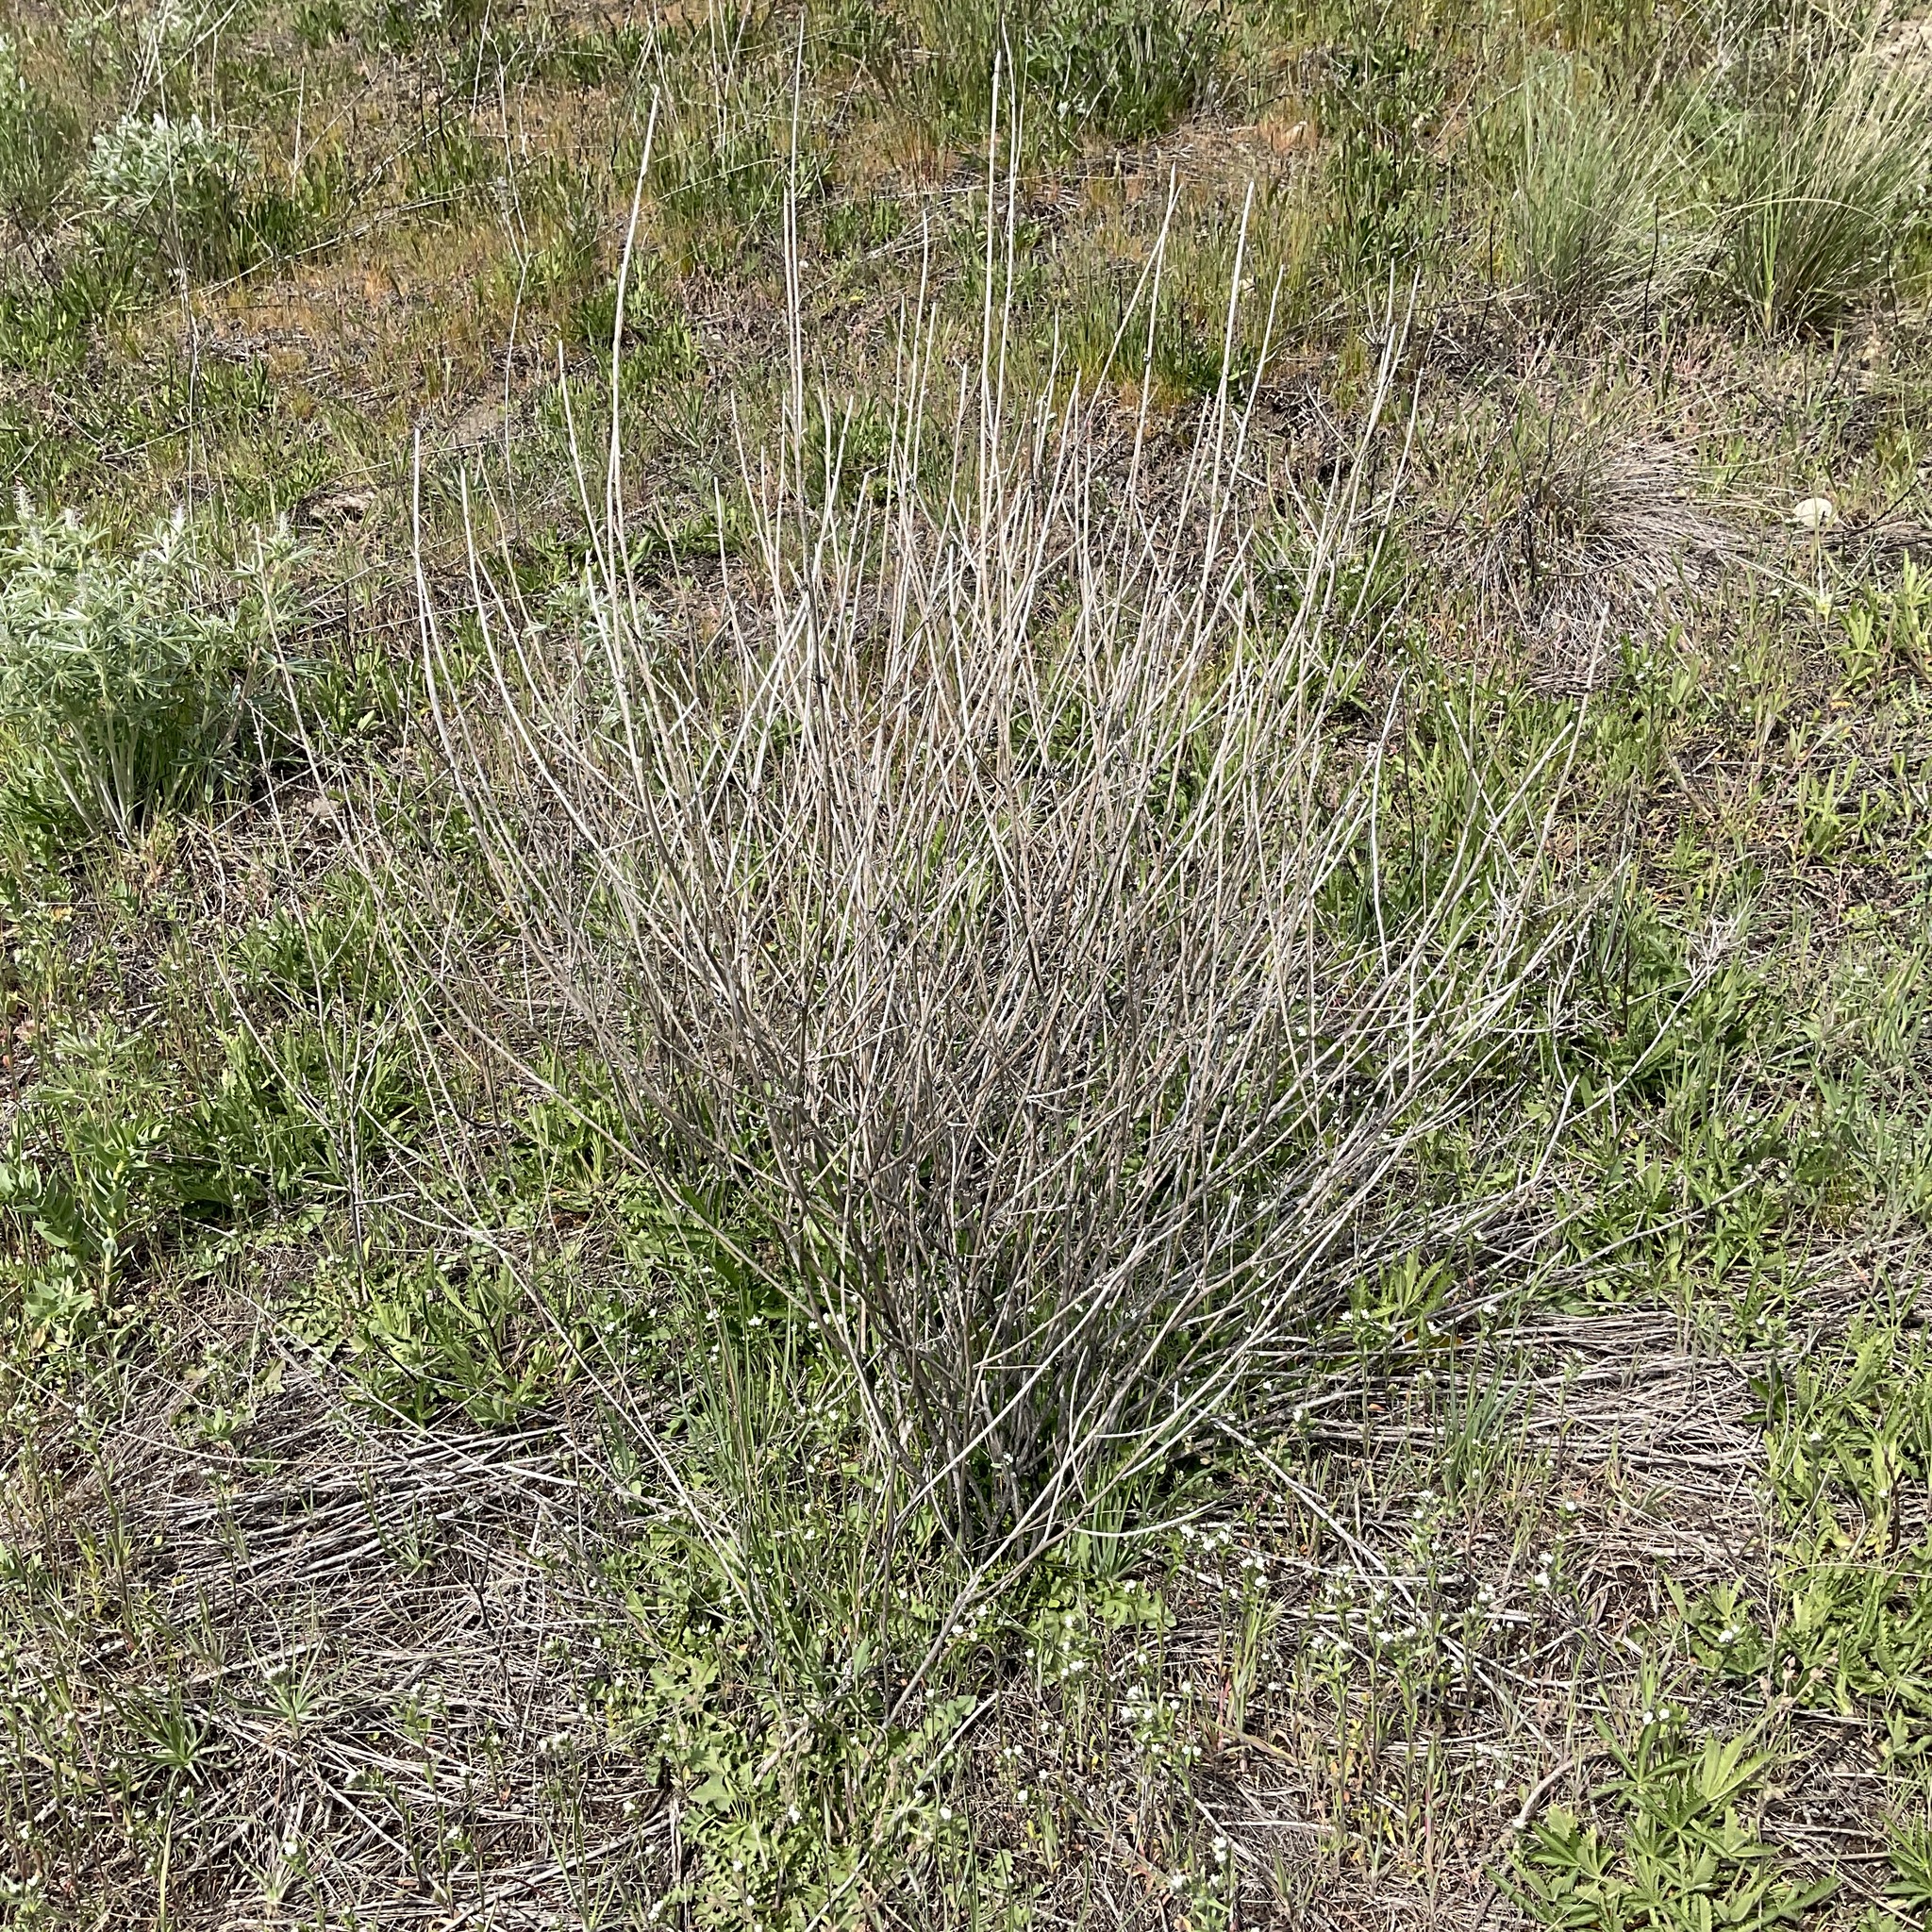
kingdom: Plantae
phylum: Tracheophyta
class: Magnoliopsida
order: Asterales
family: Asteraceae
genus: Chondrilla
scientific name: Chondrilla juncea
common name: Skeleton weed
